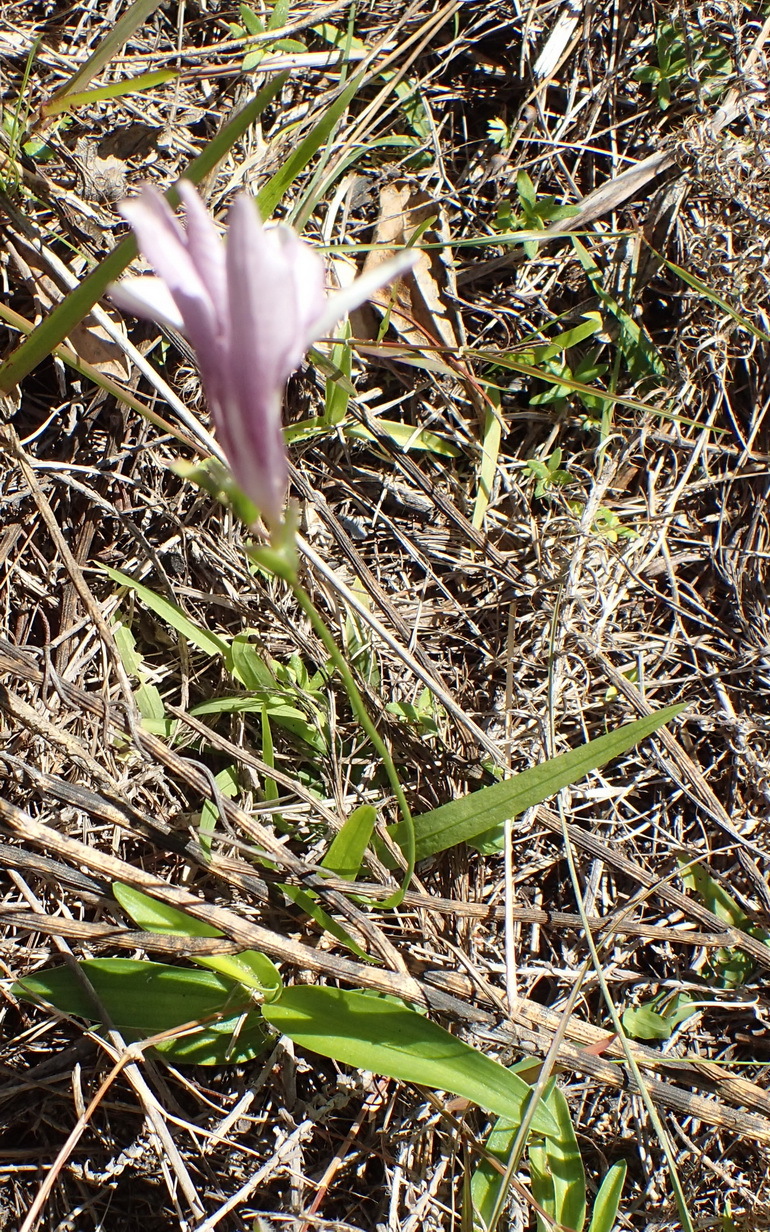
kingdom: Plantae
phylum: Tracheophyta
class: Liliopsida
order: Asparagales
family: Iridaceae
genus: Freesia
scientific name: Freesia leichtlinii
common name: Freesia
